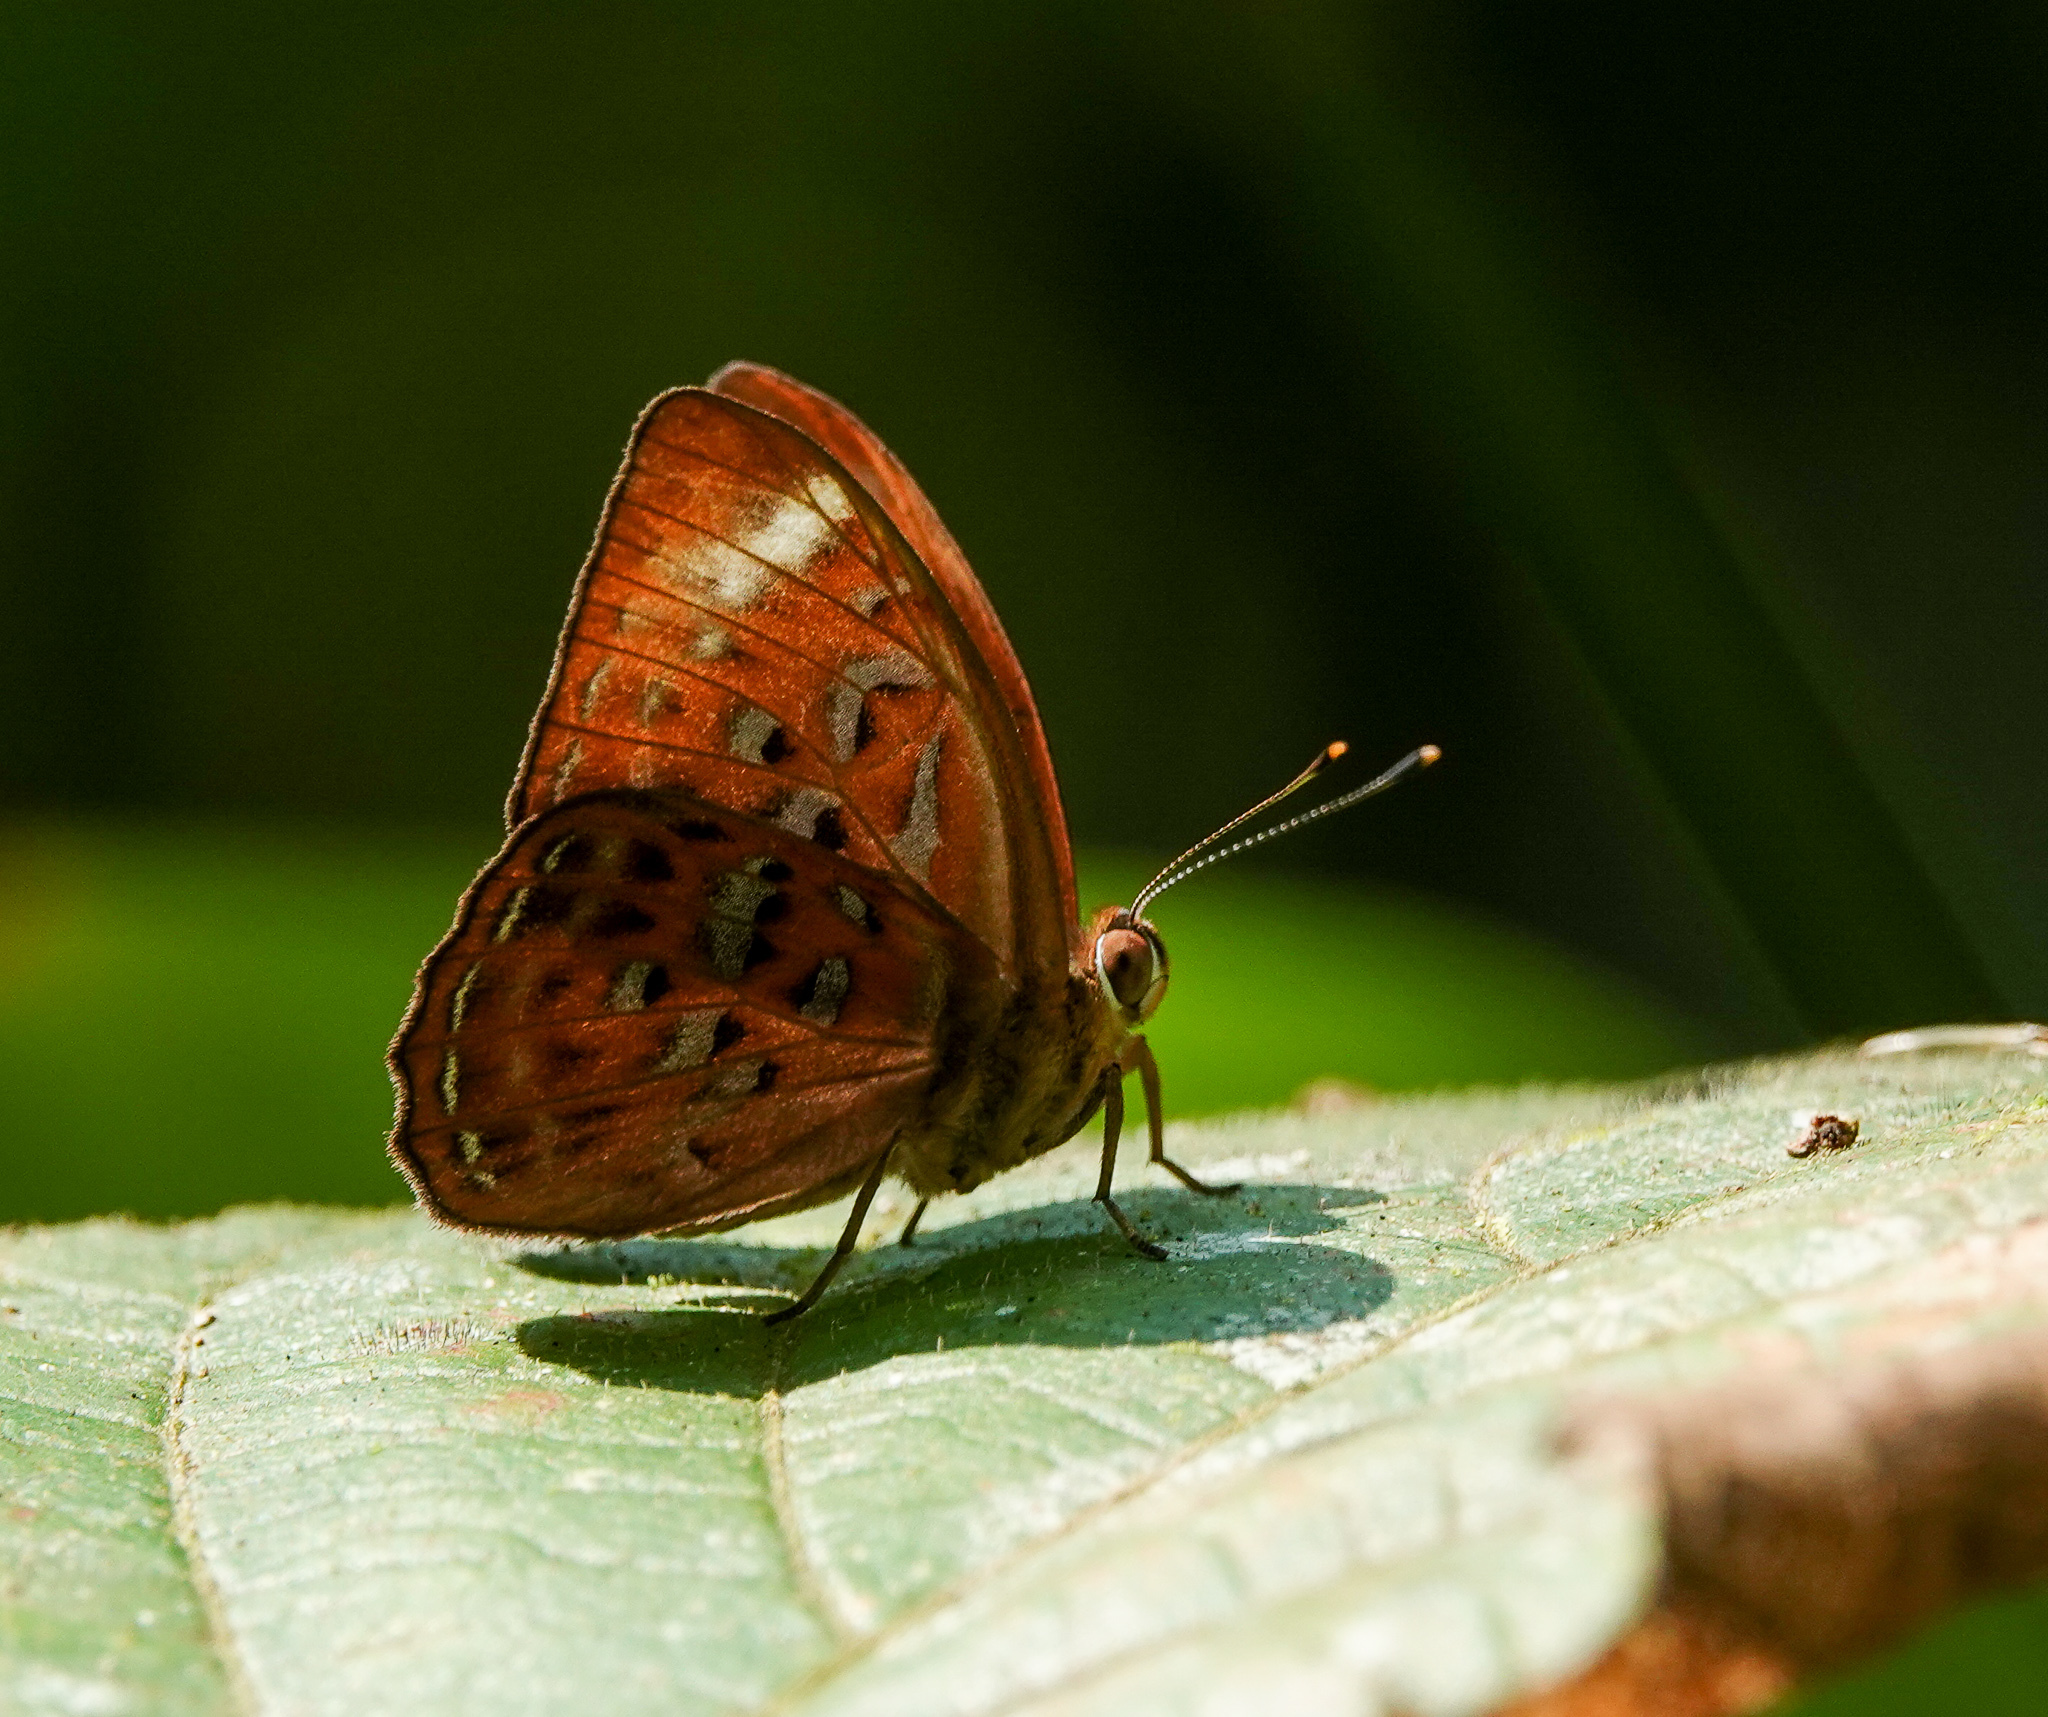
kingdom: Animalia
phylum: Arthropoda
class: Insecta
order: Lepidoptera
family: Erebidae
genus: Dysschema
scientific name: Dysschema
